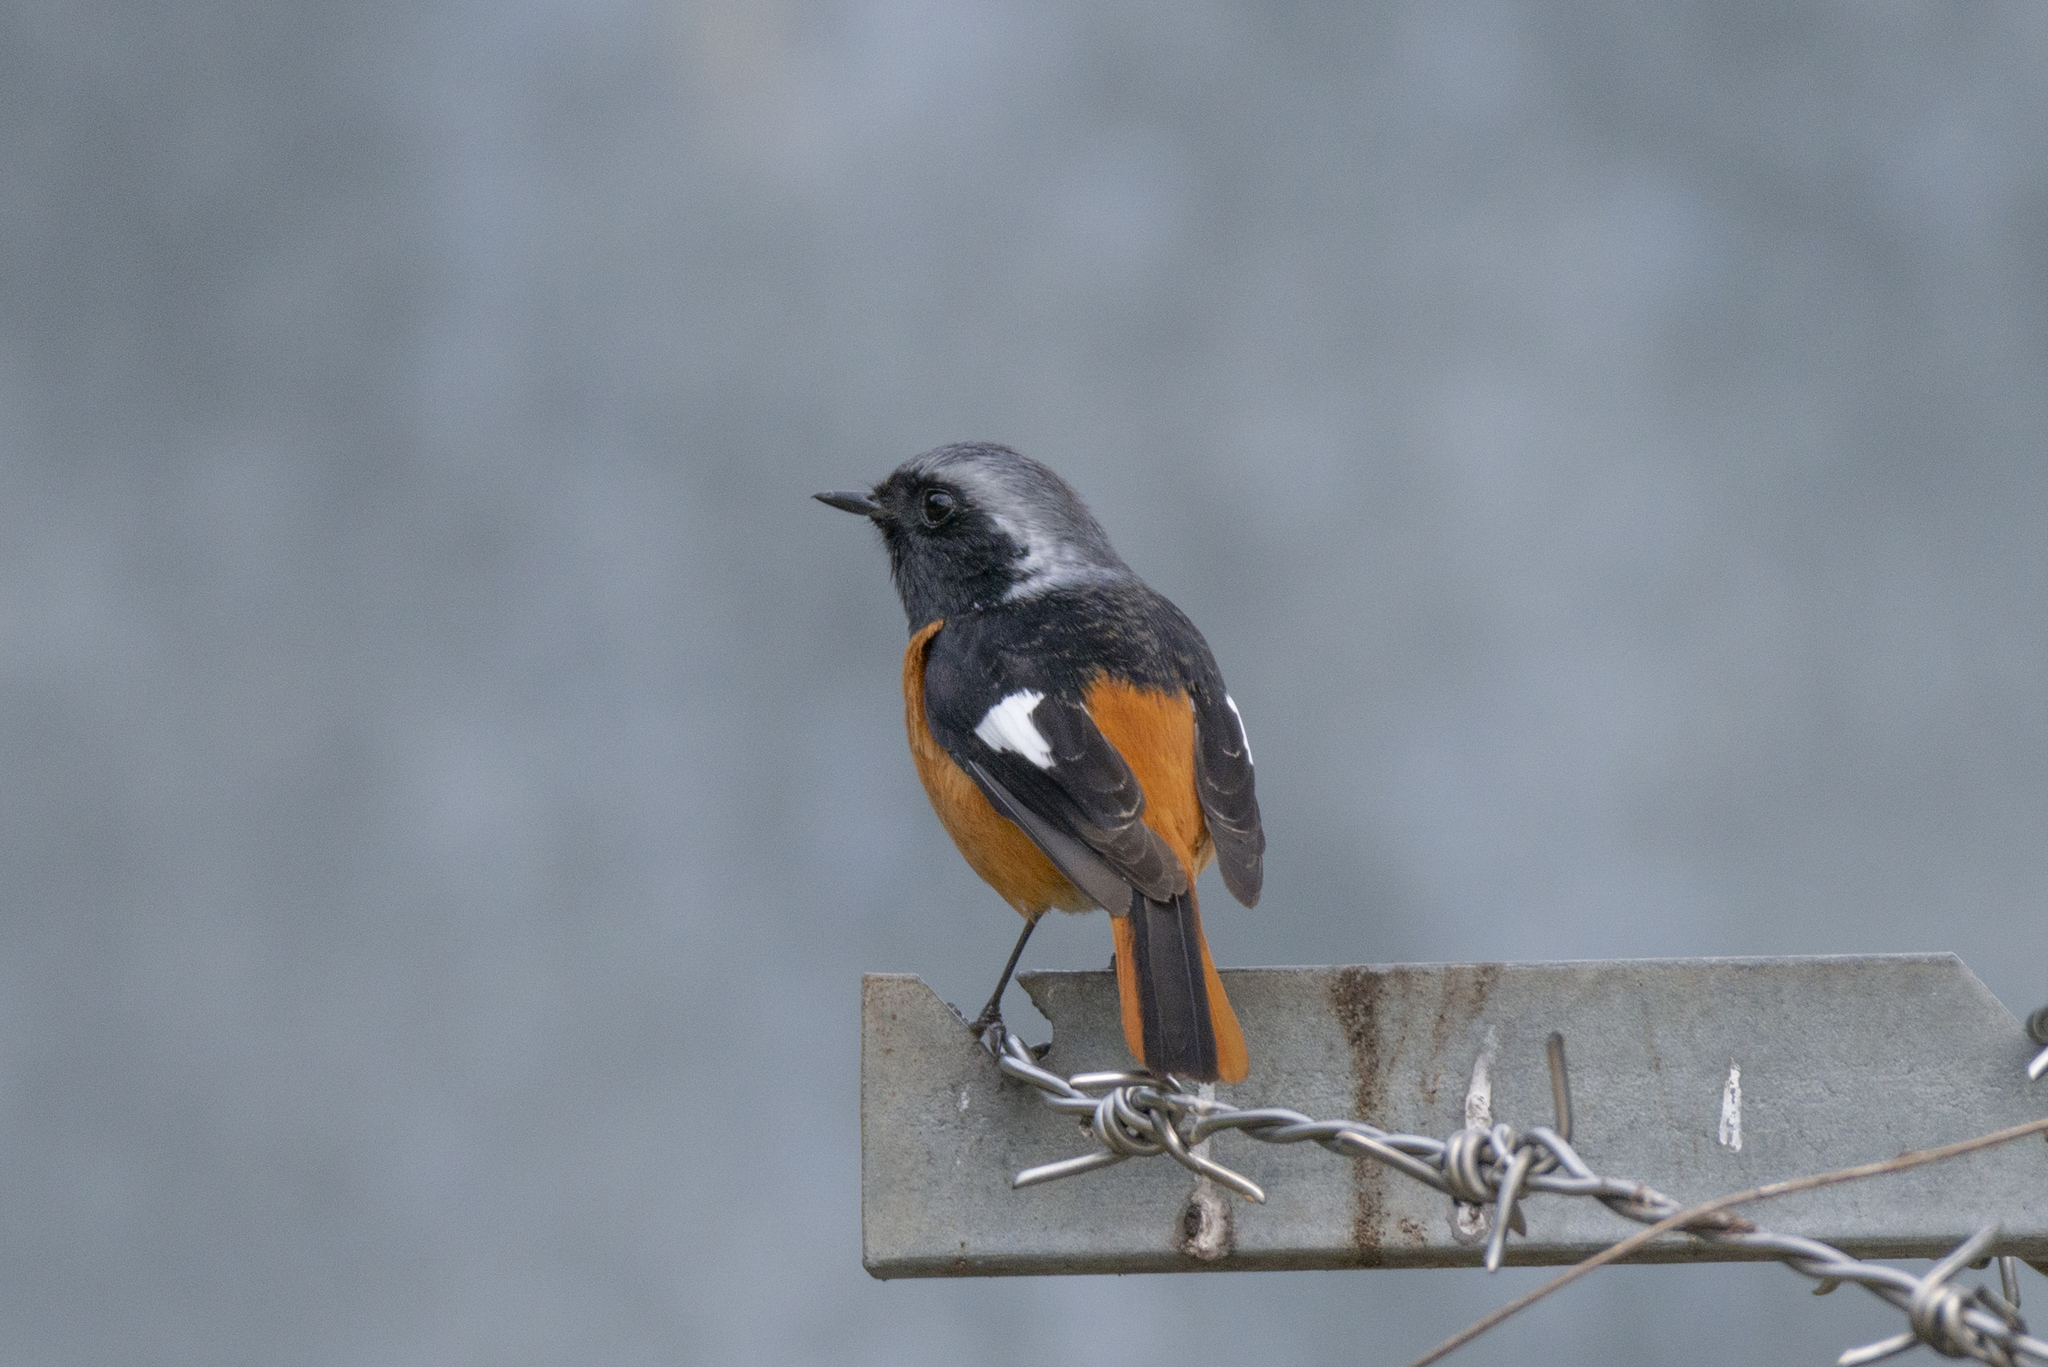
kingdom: Animalia
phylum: Chordata
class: Aves
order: Passeriformes
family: Muscicapidae
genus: Phoenicurus
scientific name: Phoenicurus auroreus
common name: Daurian redstart
